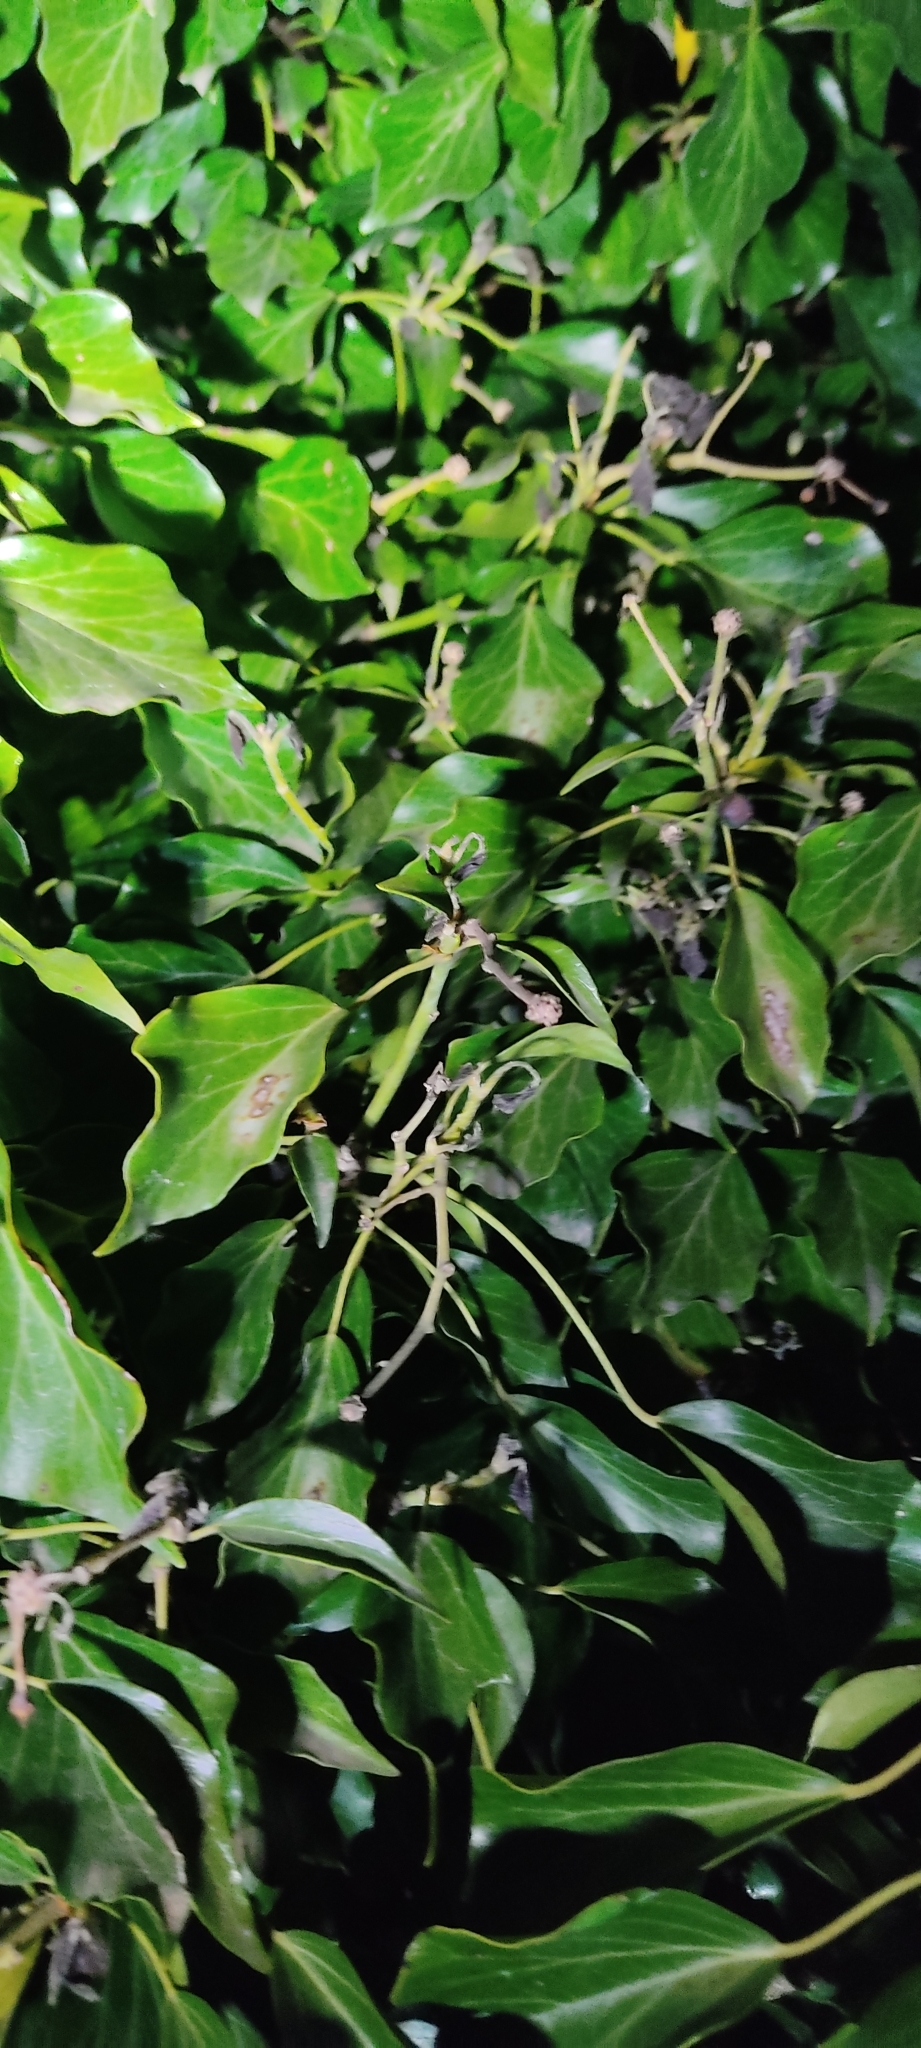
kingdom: Animalia
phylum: Chordata
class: Amphibia
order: Anura
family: Hylidae
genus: Hyla
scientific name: Hyla meridionalis
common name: Stripeless tree frog
